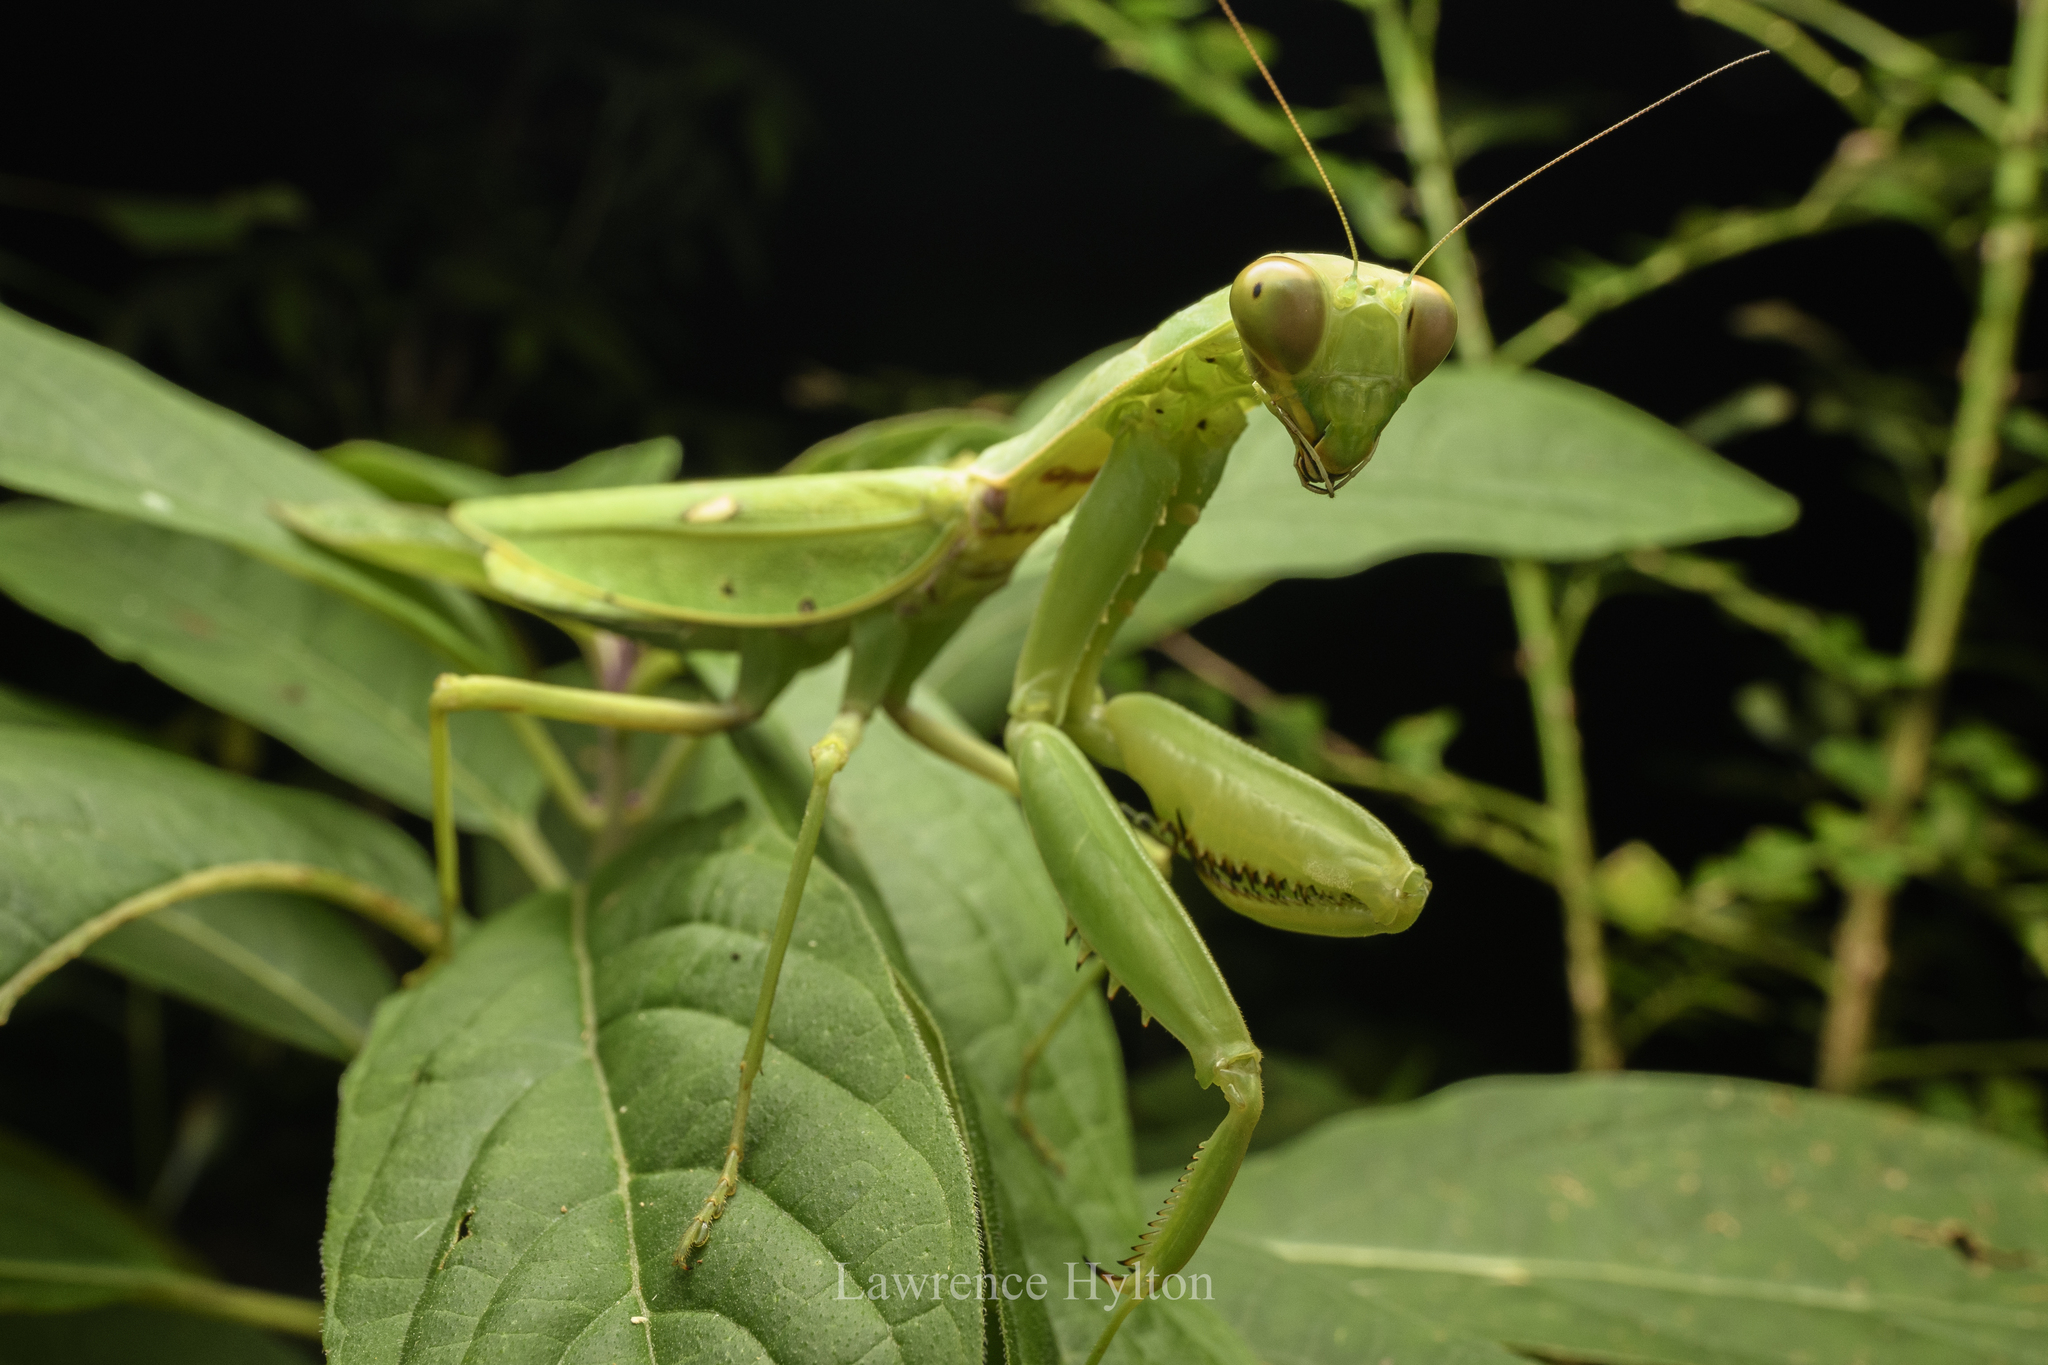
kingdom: Animalia
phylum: Arthropoda
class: Insecta
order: Mantodea
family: Mantidae
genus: Hierodula
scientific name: Hierodula patellifera
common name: Asian mantis
